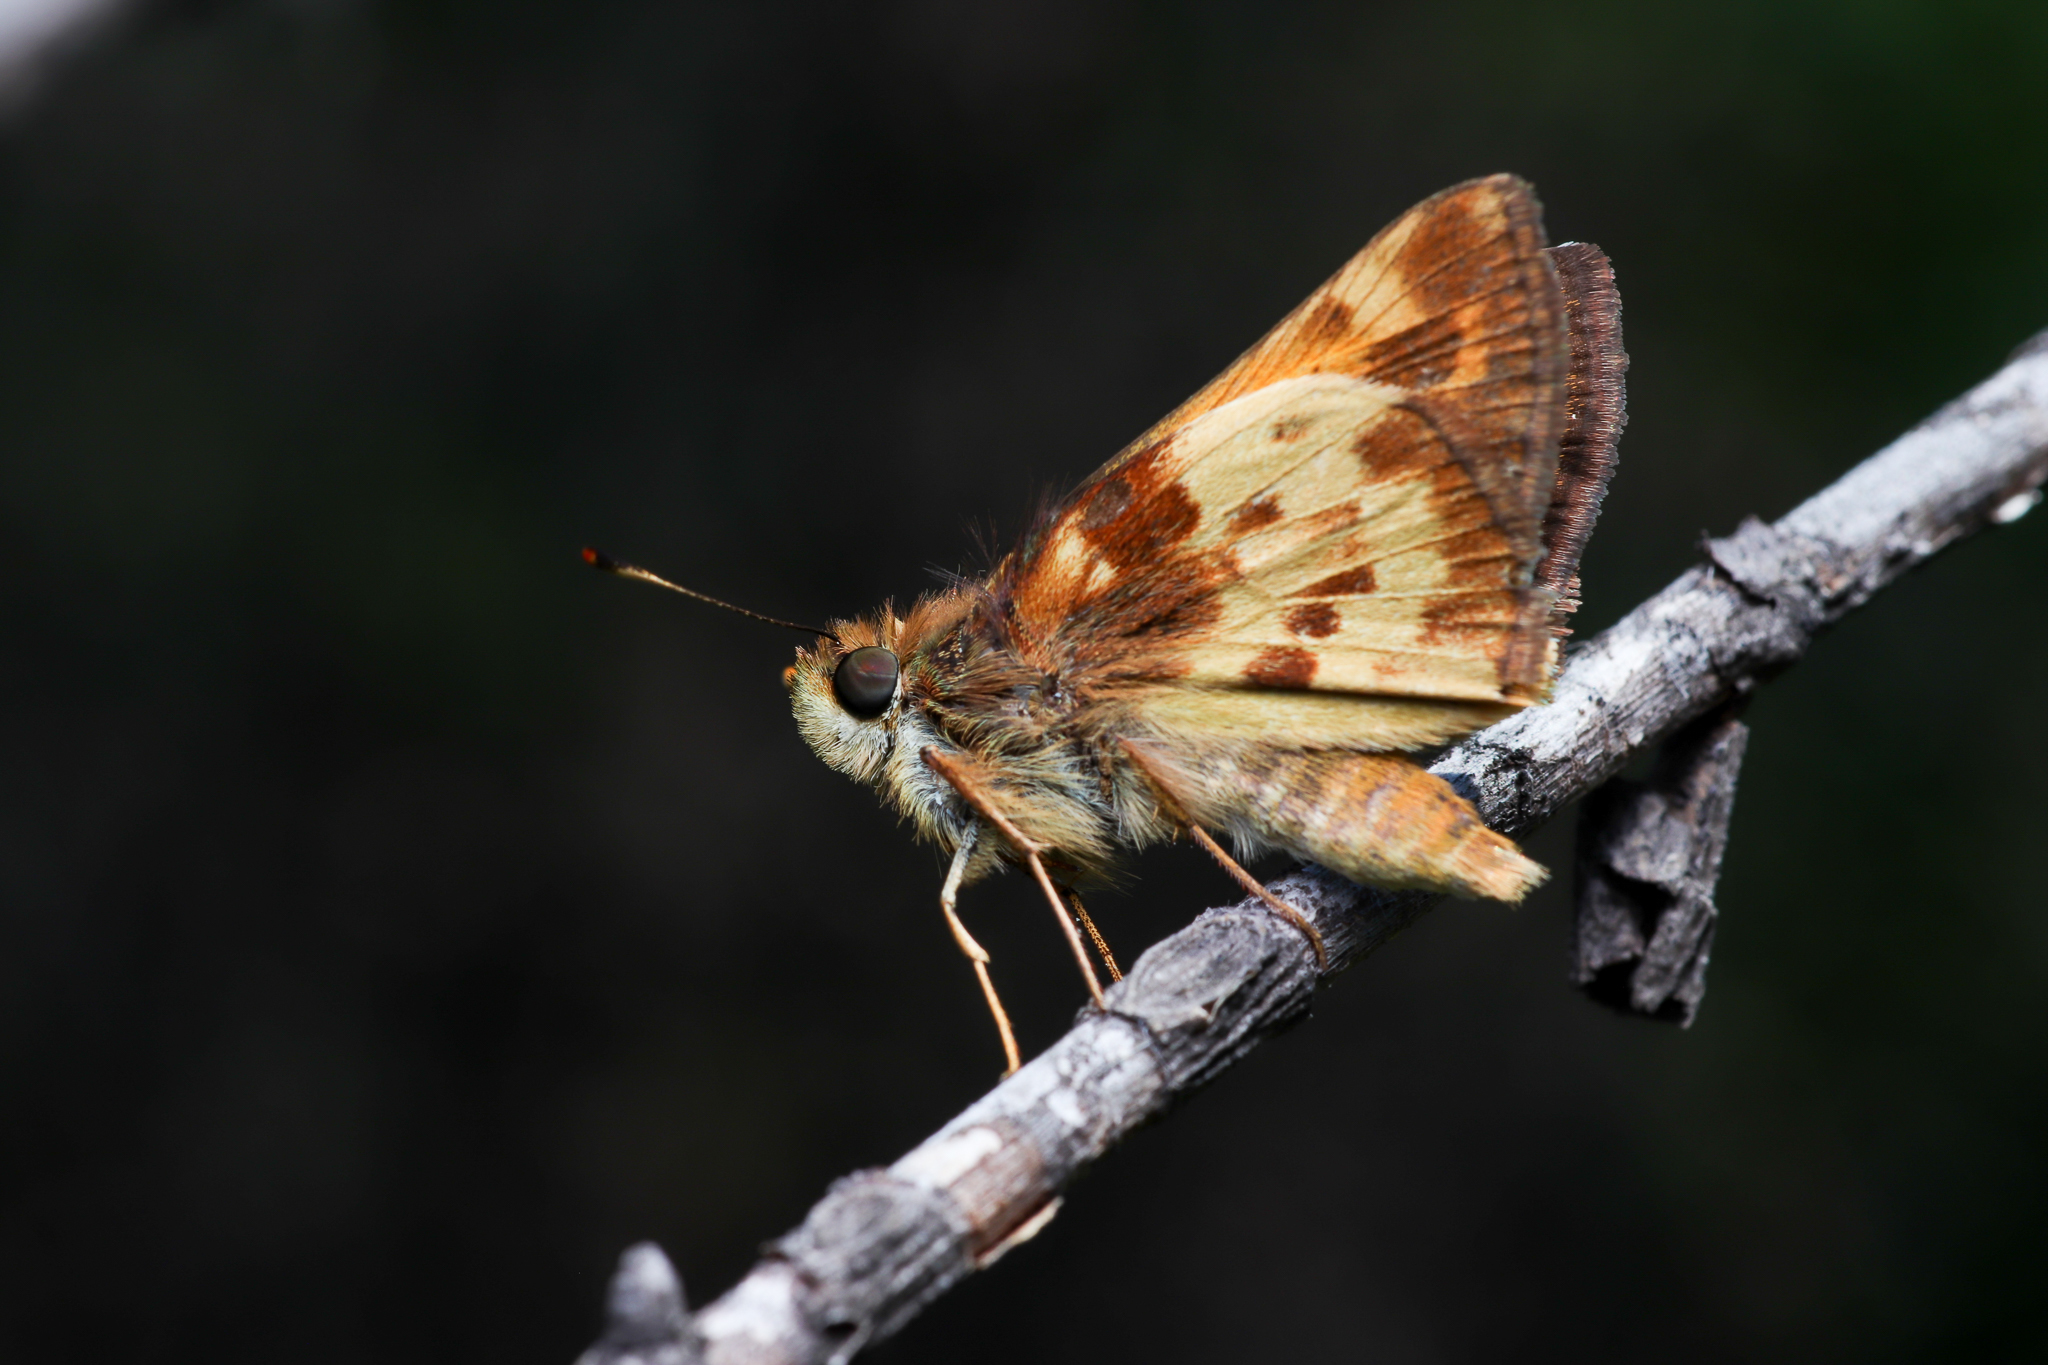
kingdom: Animalia
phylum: Arthropoda
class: Insecta
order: Lepidoptera
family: Hesperiidae
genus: Lon
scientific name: Lon zabulon
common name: Zabulon skipper
